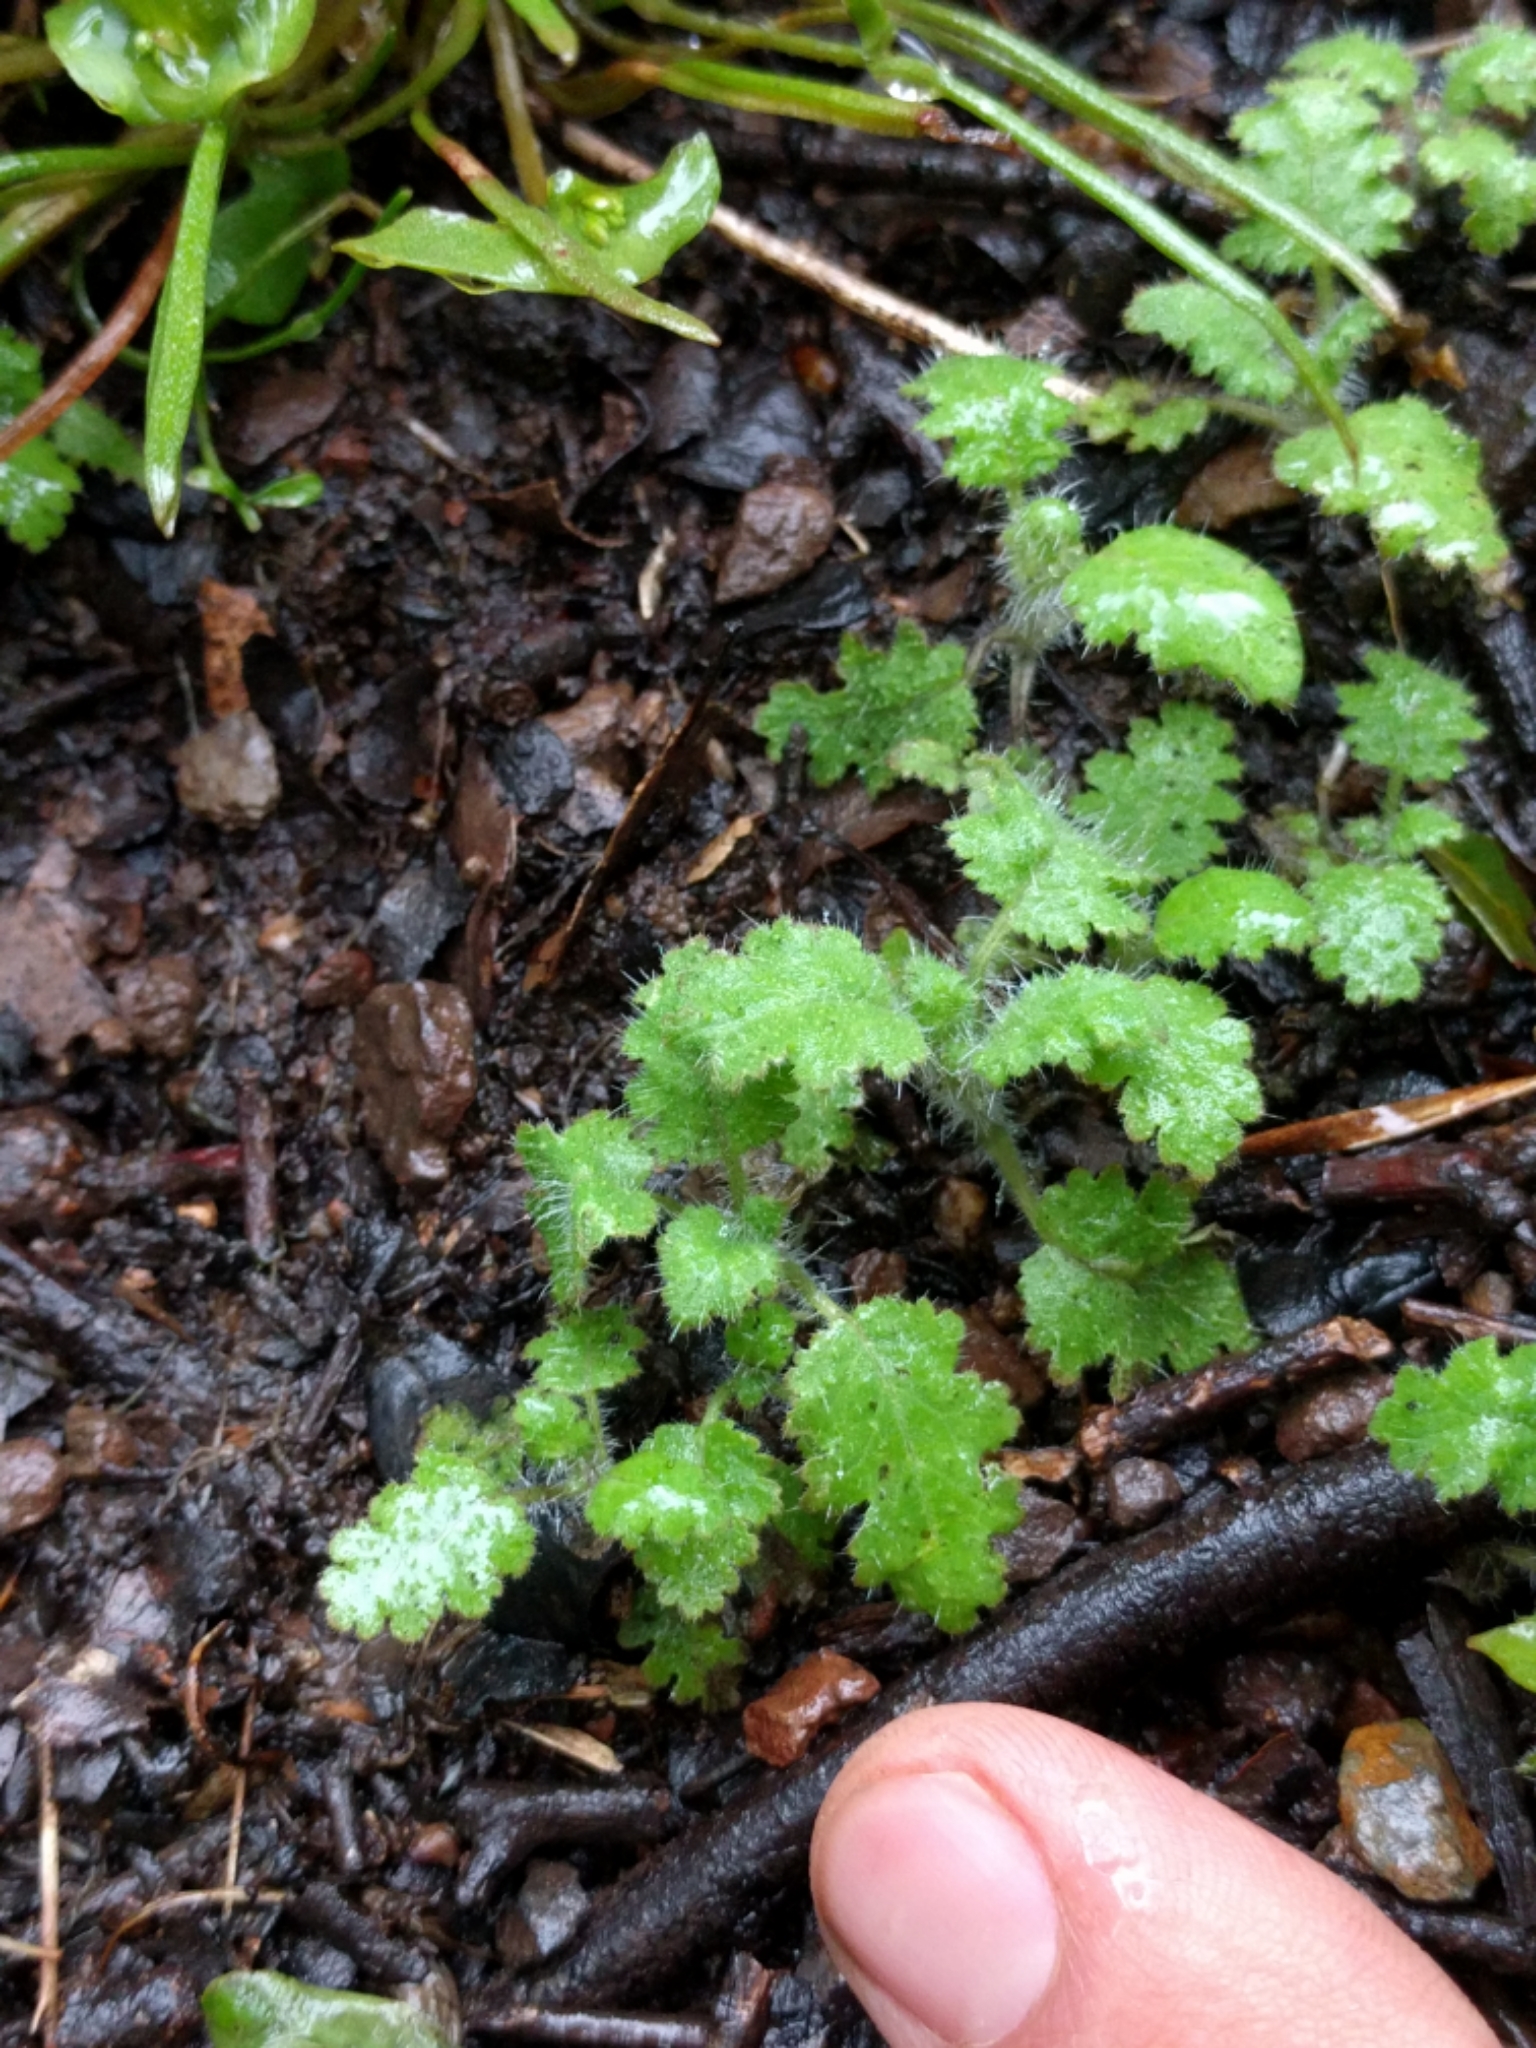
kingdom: Plantae
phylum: Tracheophyta
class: Magnoliopsida
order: Boraginales
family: Hydrophyllaceae
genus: Phacelia
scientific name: Phacelia rattanii
